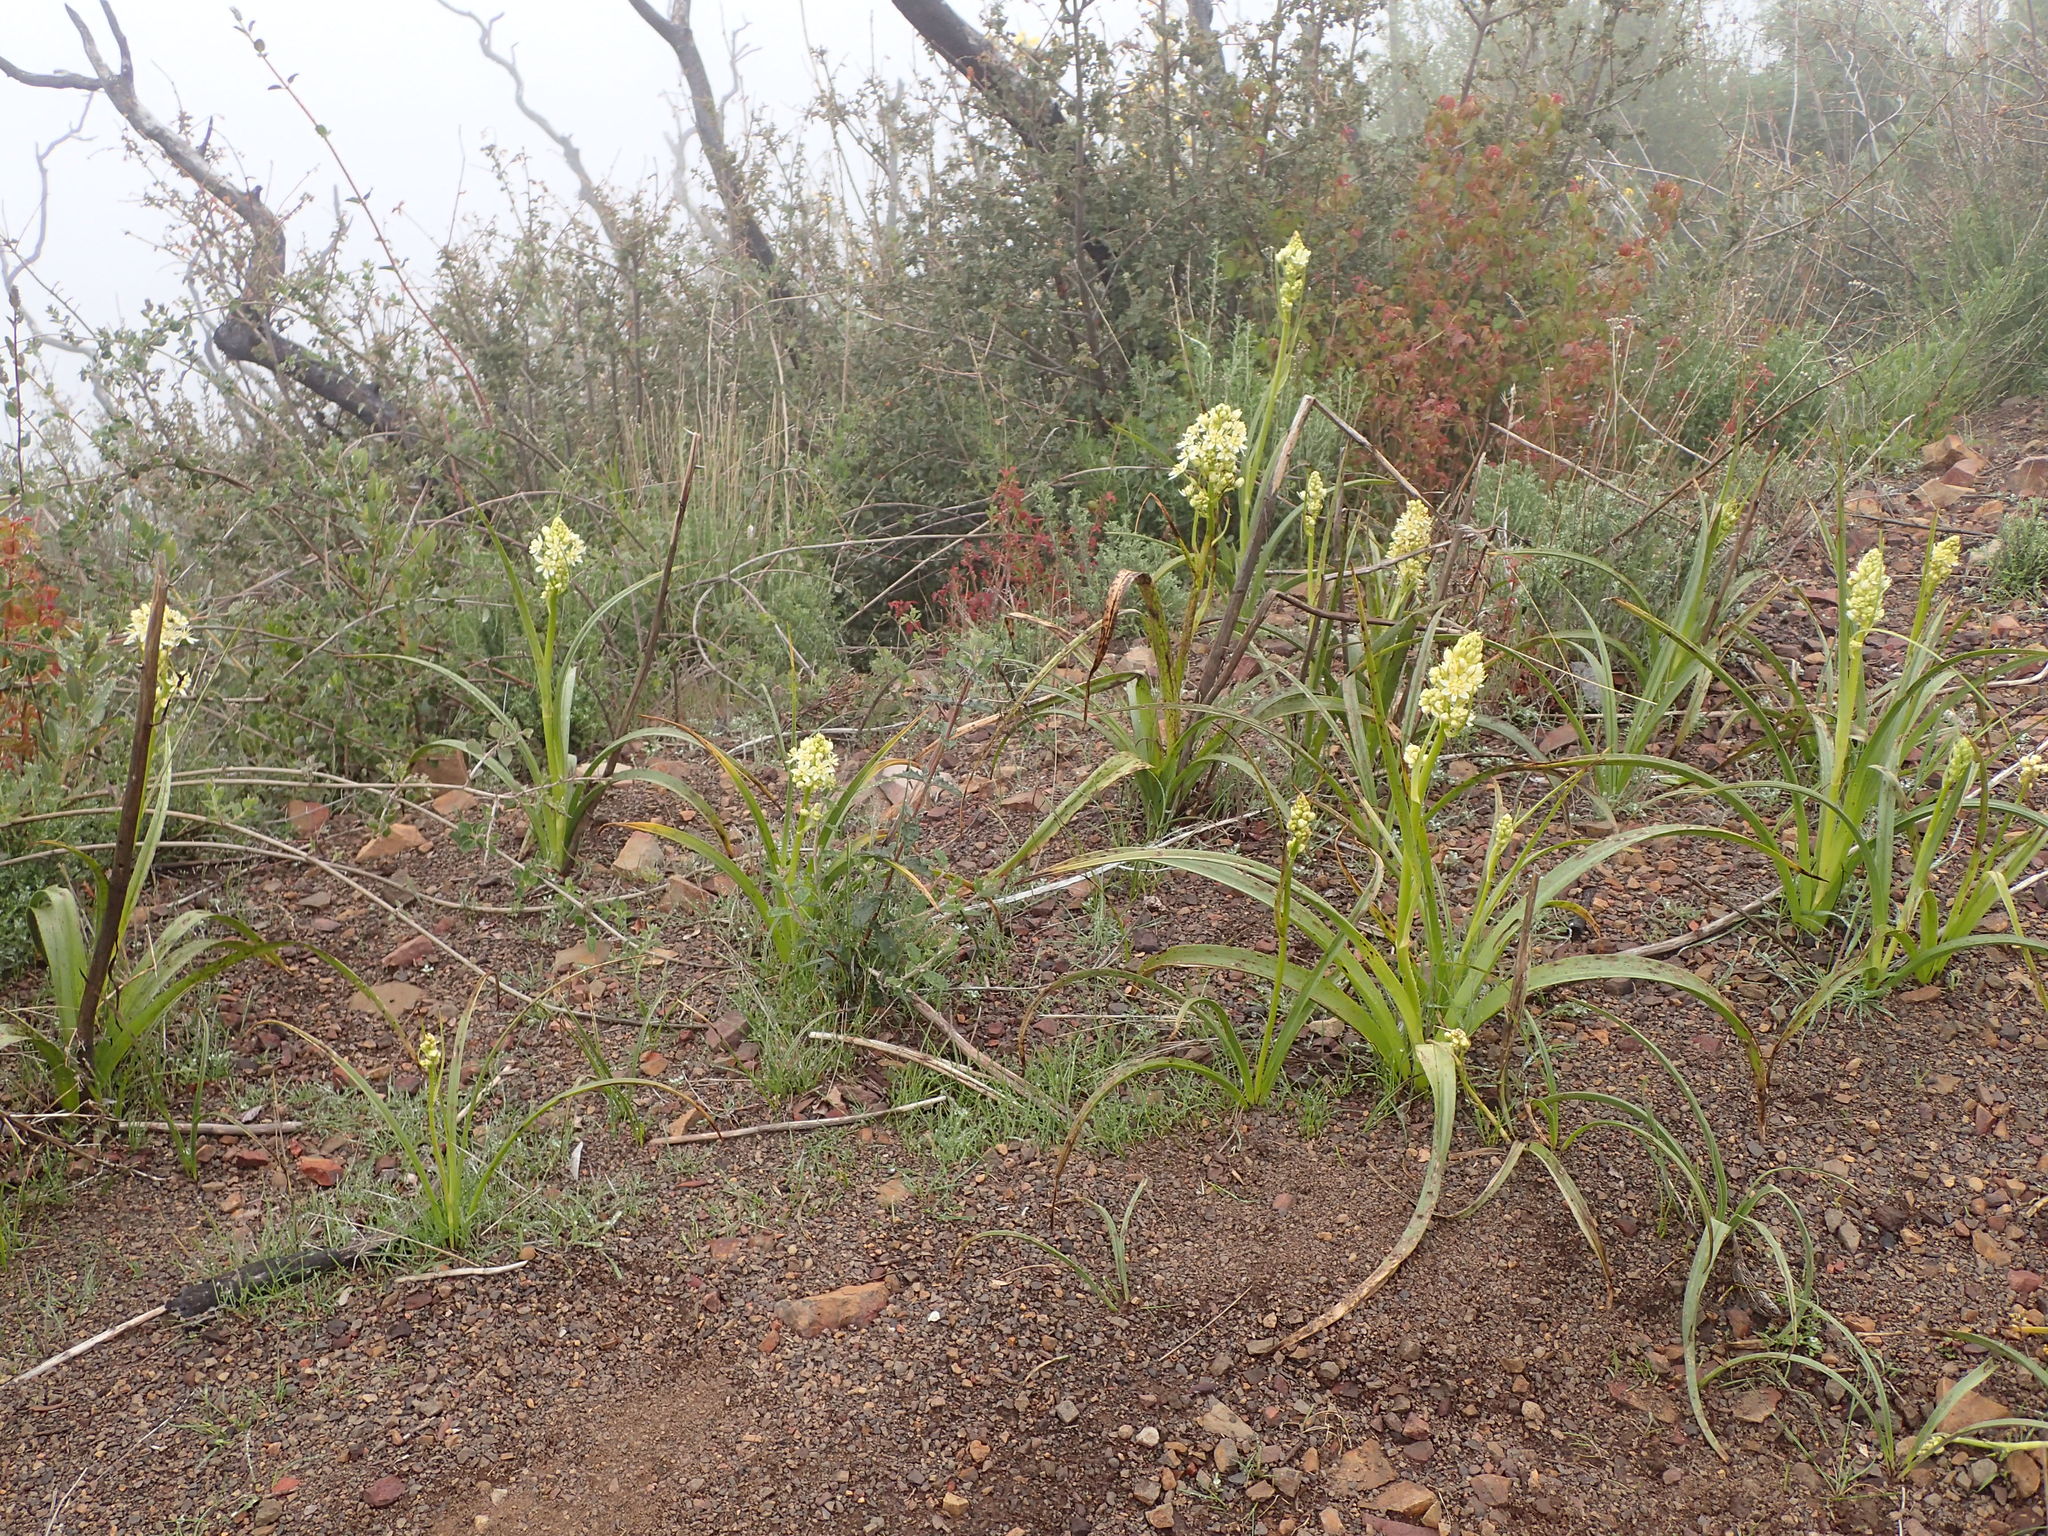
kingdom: Plantae
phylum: Tracheophyta
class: Liliopsida
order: Liliales
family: Melanthiaceae
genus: Toxicoscordion
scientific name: Toxicoscordion fremontii
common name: Fremont's death camas
